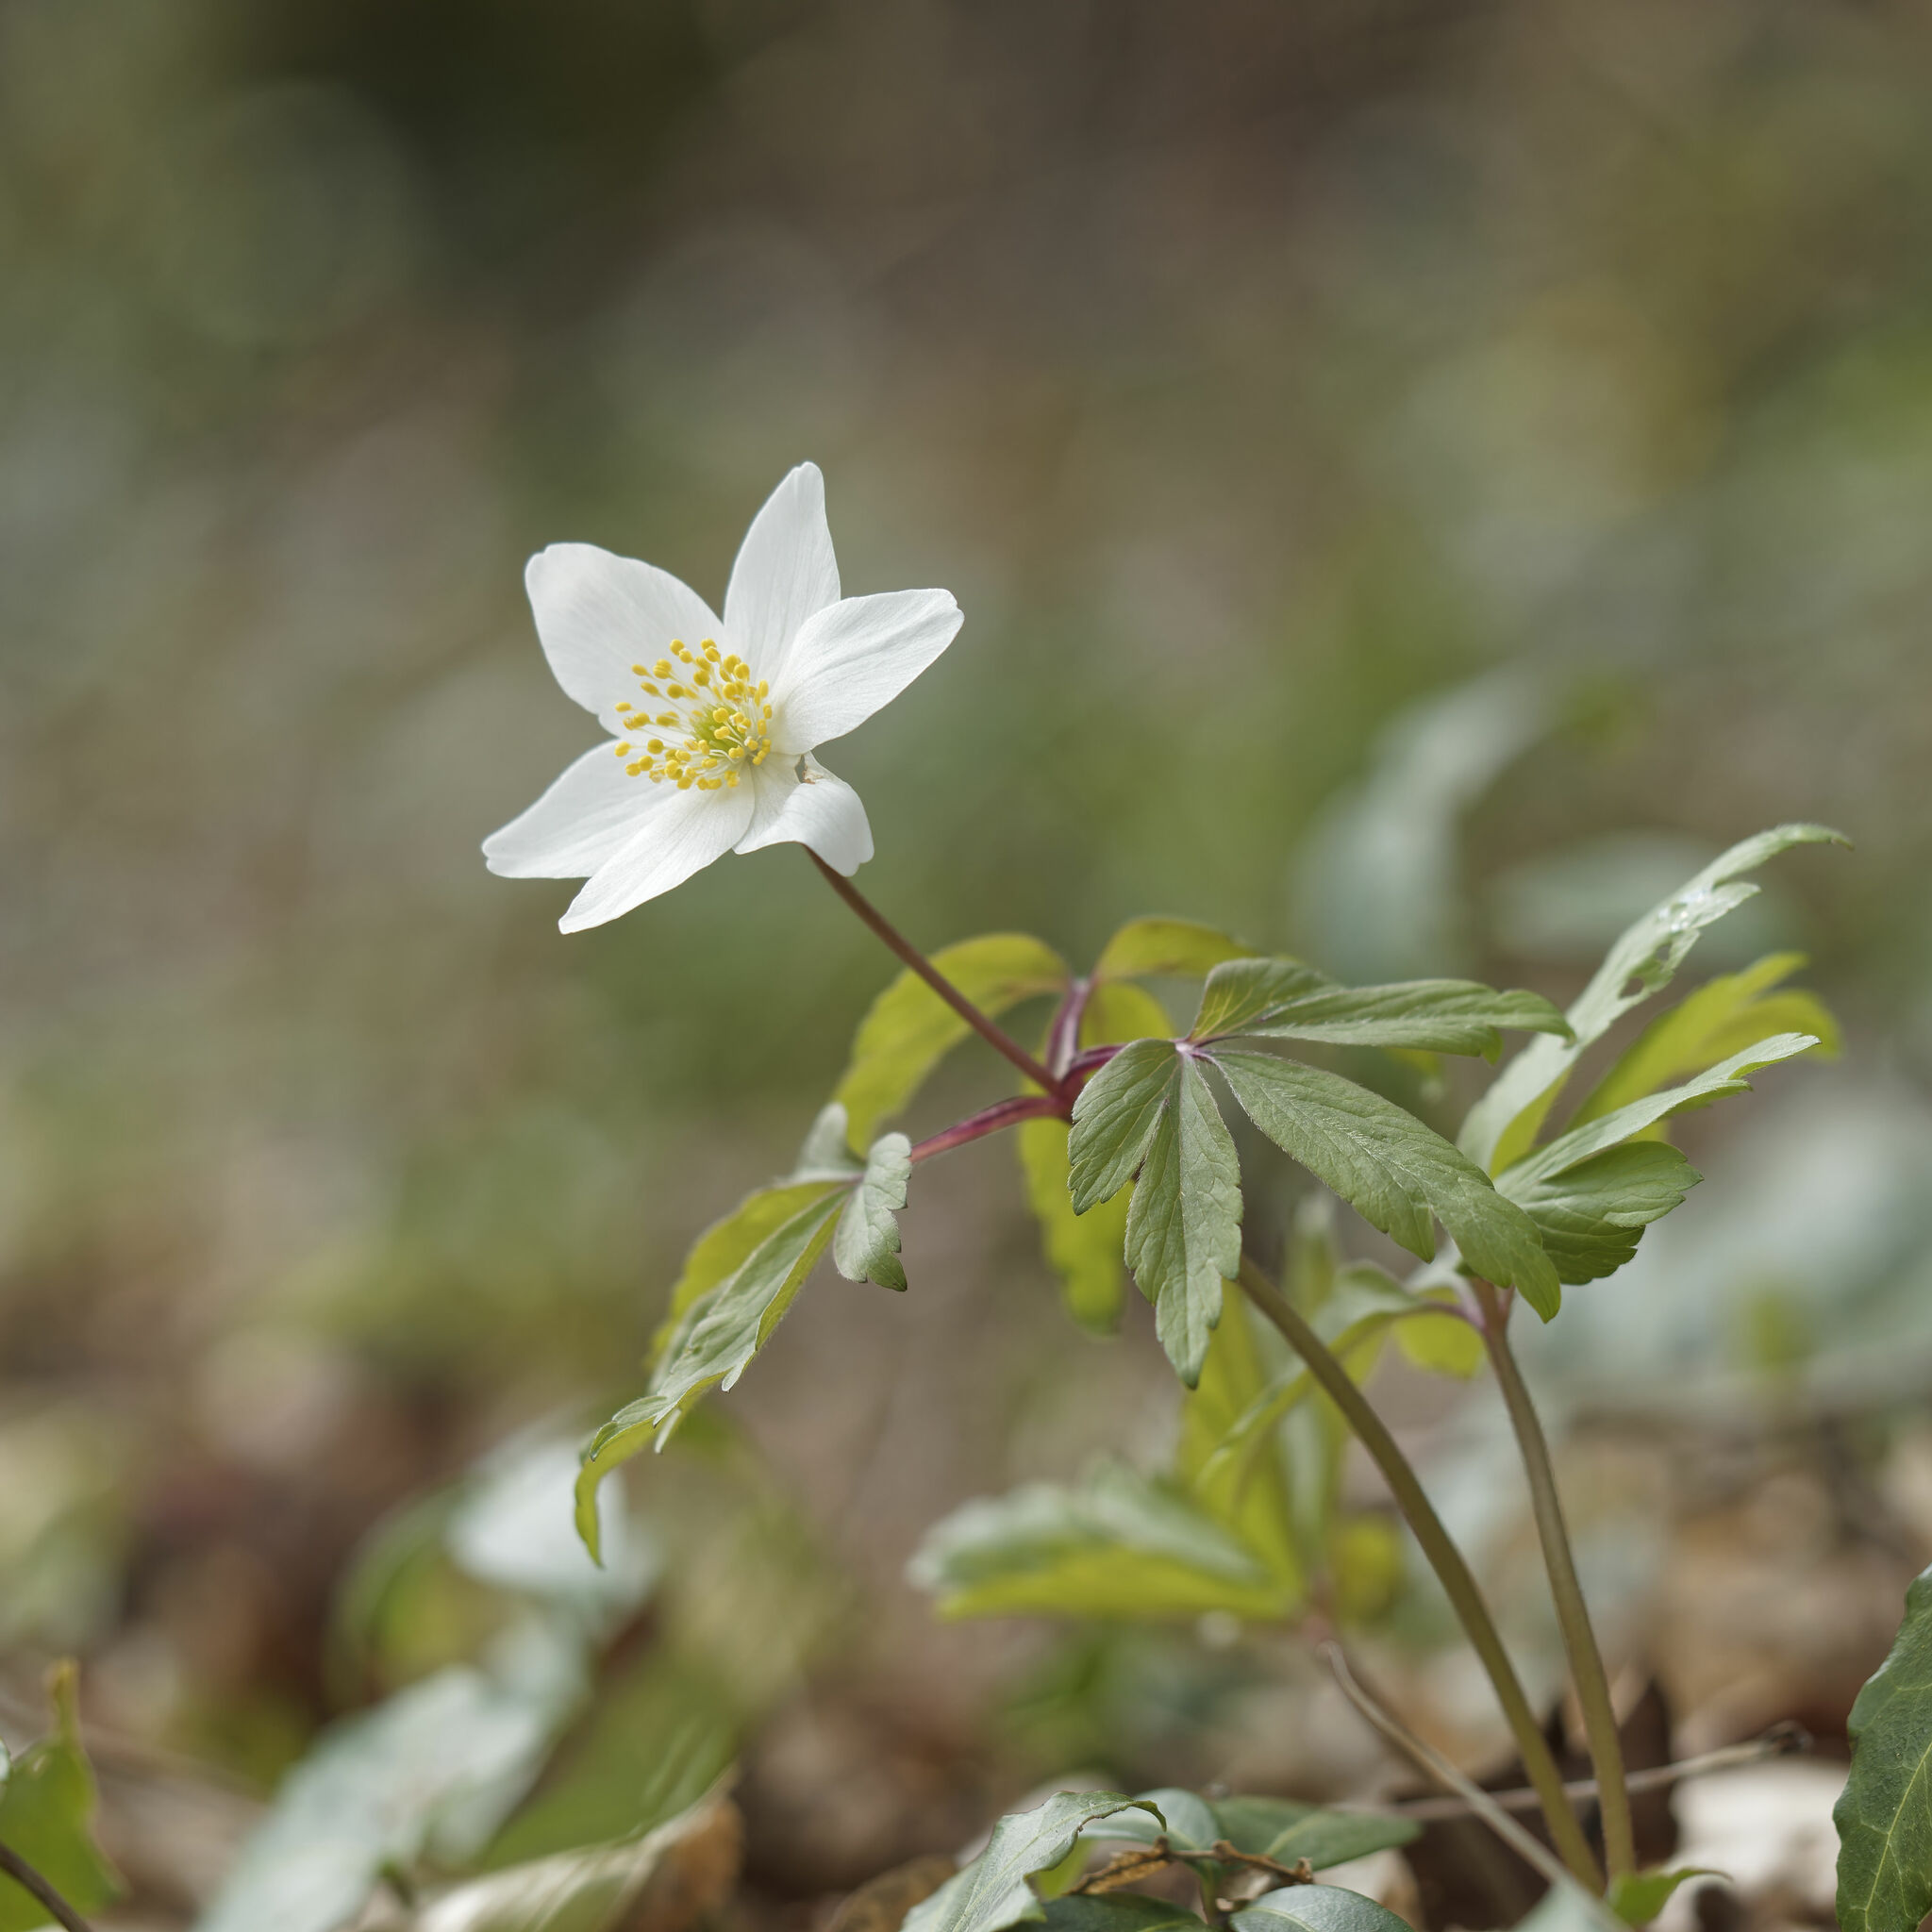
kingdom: Plantae
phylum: Tracheophyta
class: Magnoliopsida
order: Ranunculales
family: Ranunculaceae
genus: Anemone
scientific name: Anemone nemorosa
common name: Wood anemone
